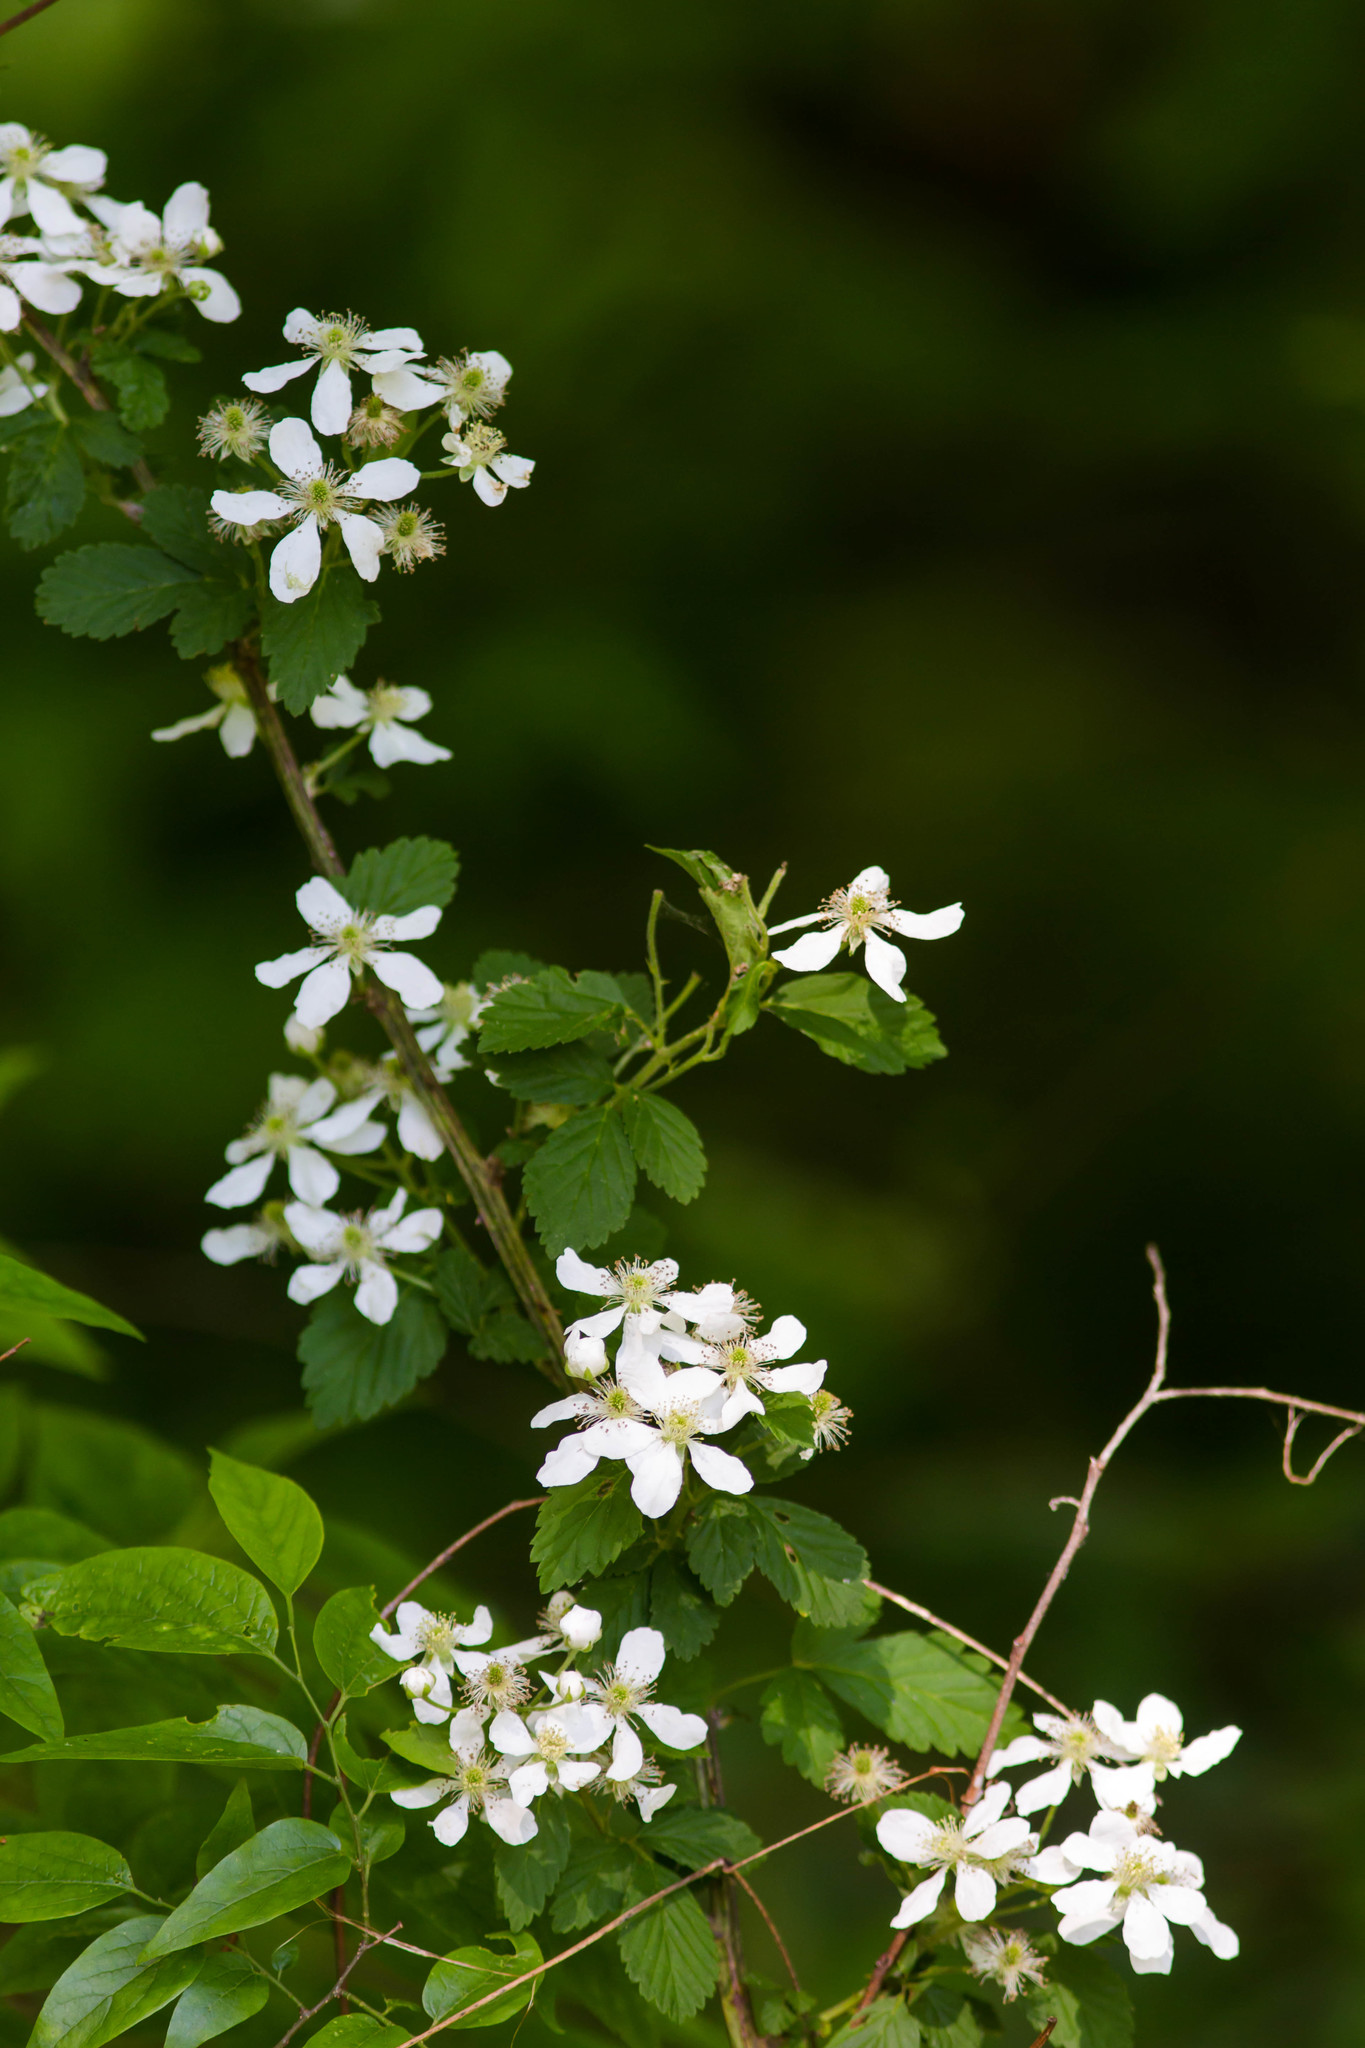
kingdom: Plantae
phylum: Tracheophyta
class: Magnoliopsida
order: Rosales
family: Rosaceae
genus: Rubus
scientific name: Rubus pensilvanicus
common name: Pennsylvania blackberry
